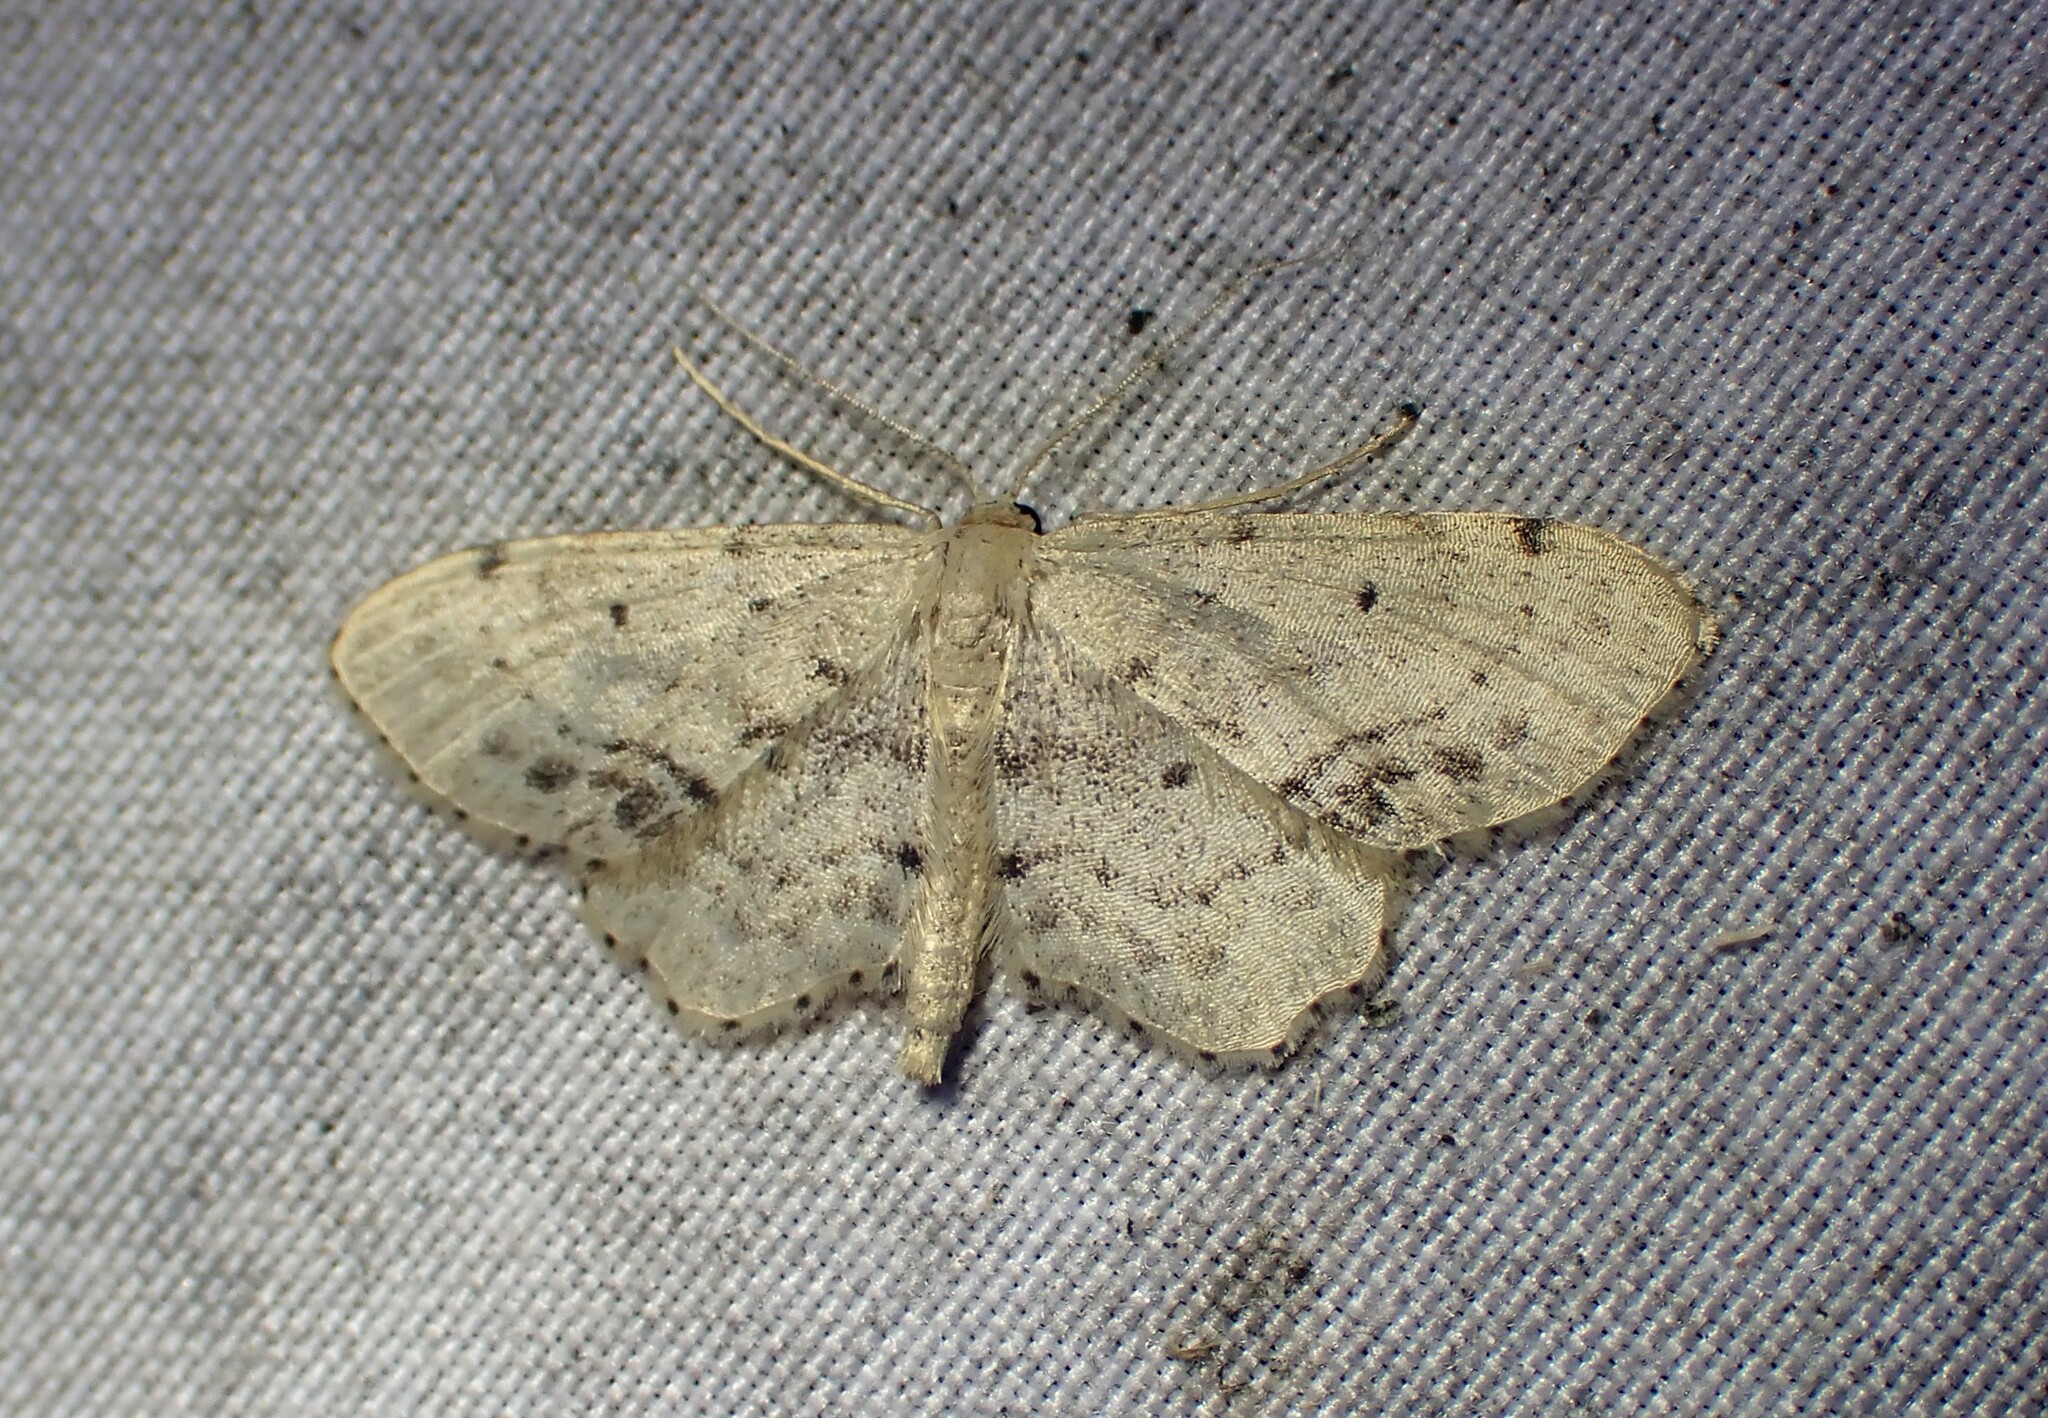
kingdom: Animalia
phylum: Arthropoda
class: Insecta
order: Lepidoptera
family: Geometridae
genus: Idaea
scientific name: Idaea dimidiata
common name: Single-dotted wave
